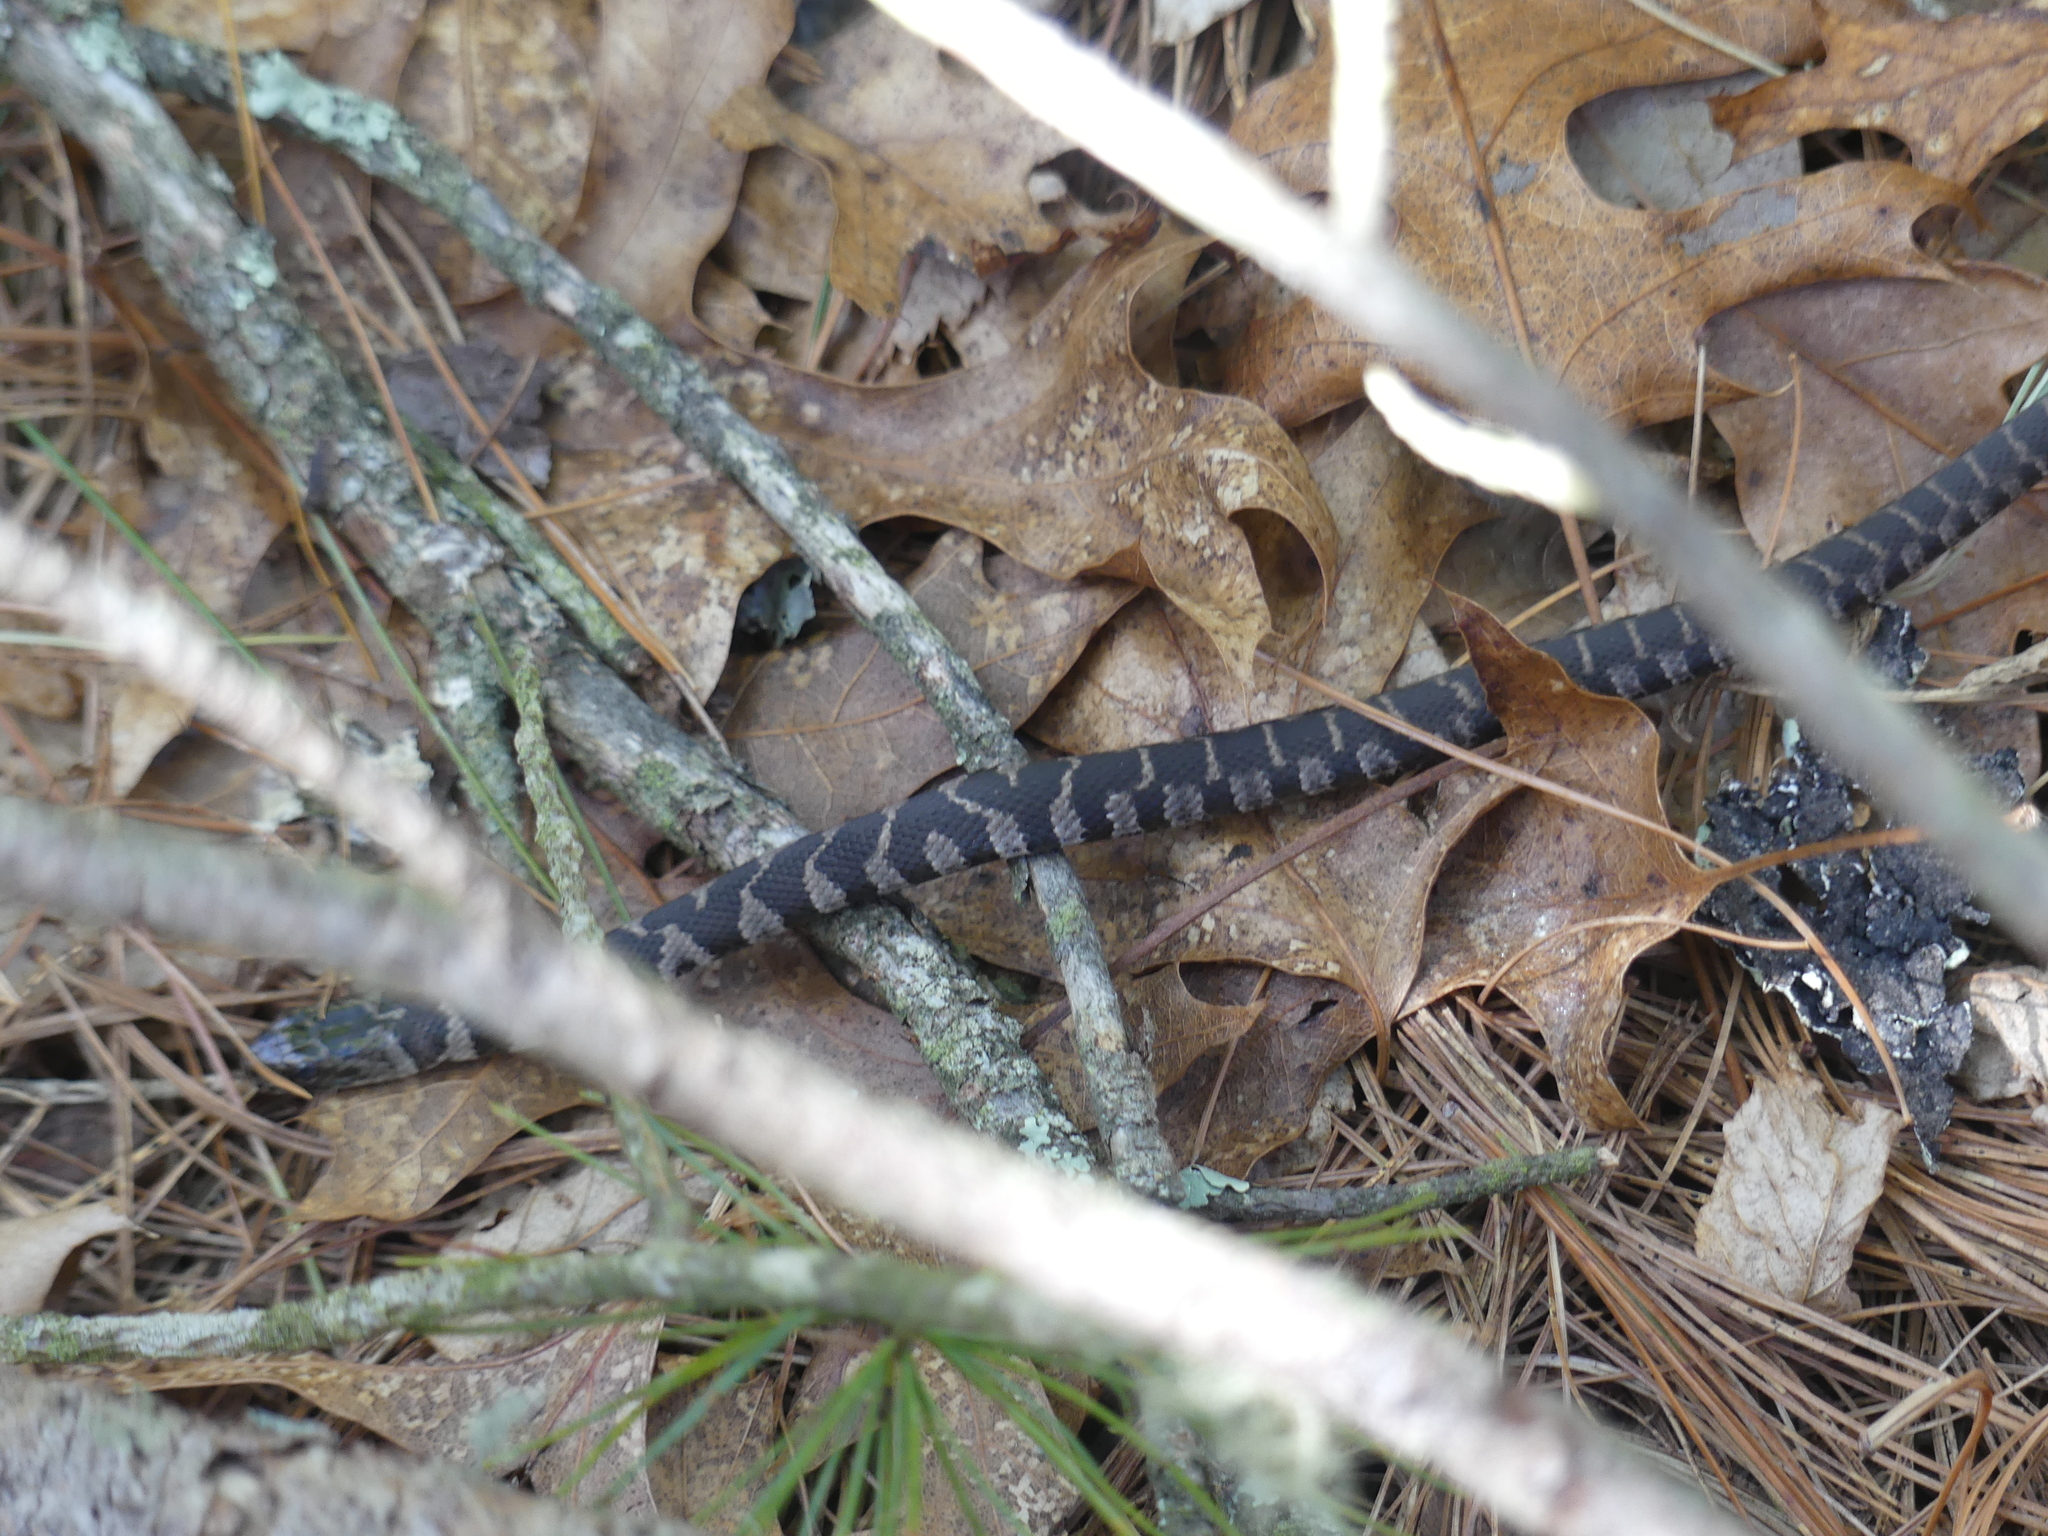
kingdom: Animalia
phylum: Chordata
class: Squamata
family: Colubridae
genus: Nerodia
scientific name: Nerodia sipedon
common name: Northern water snake
